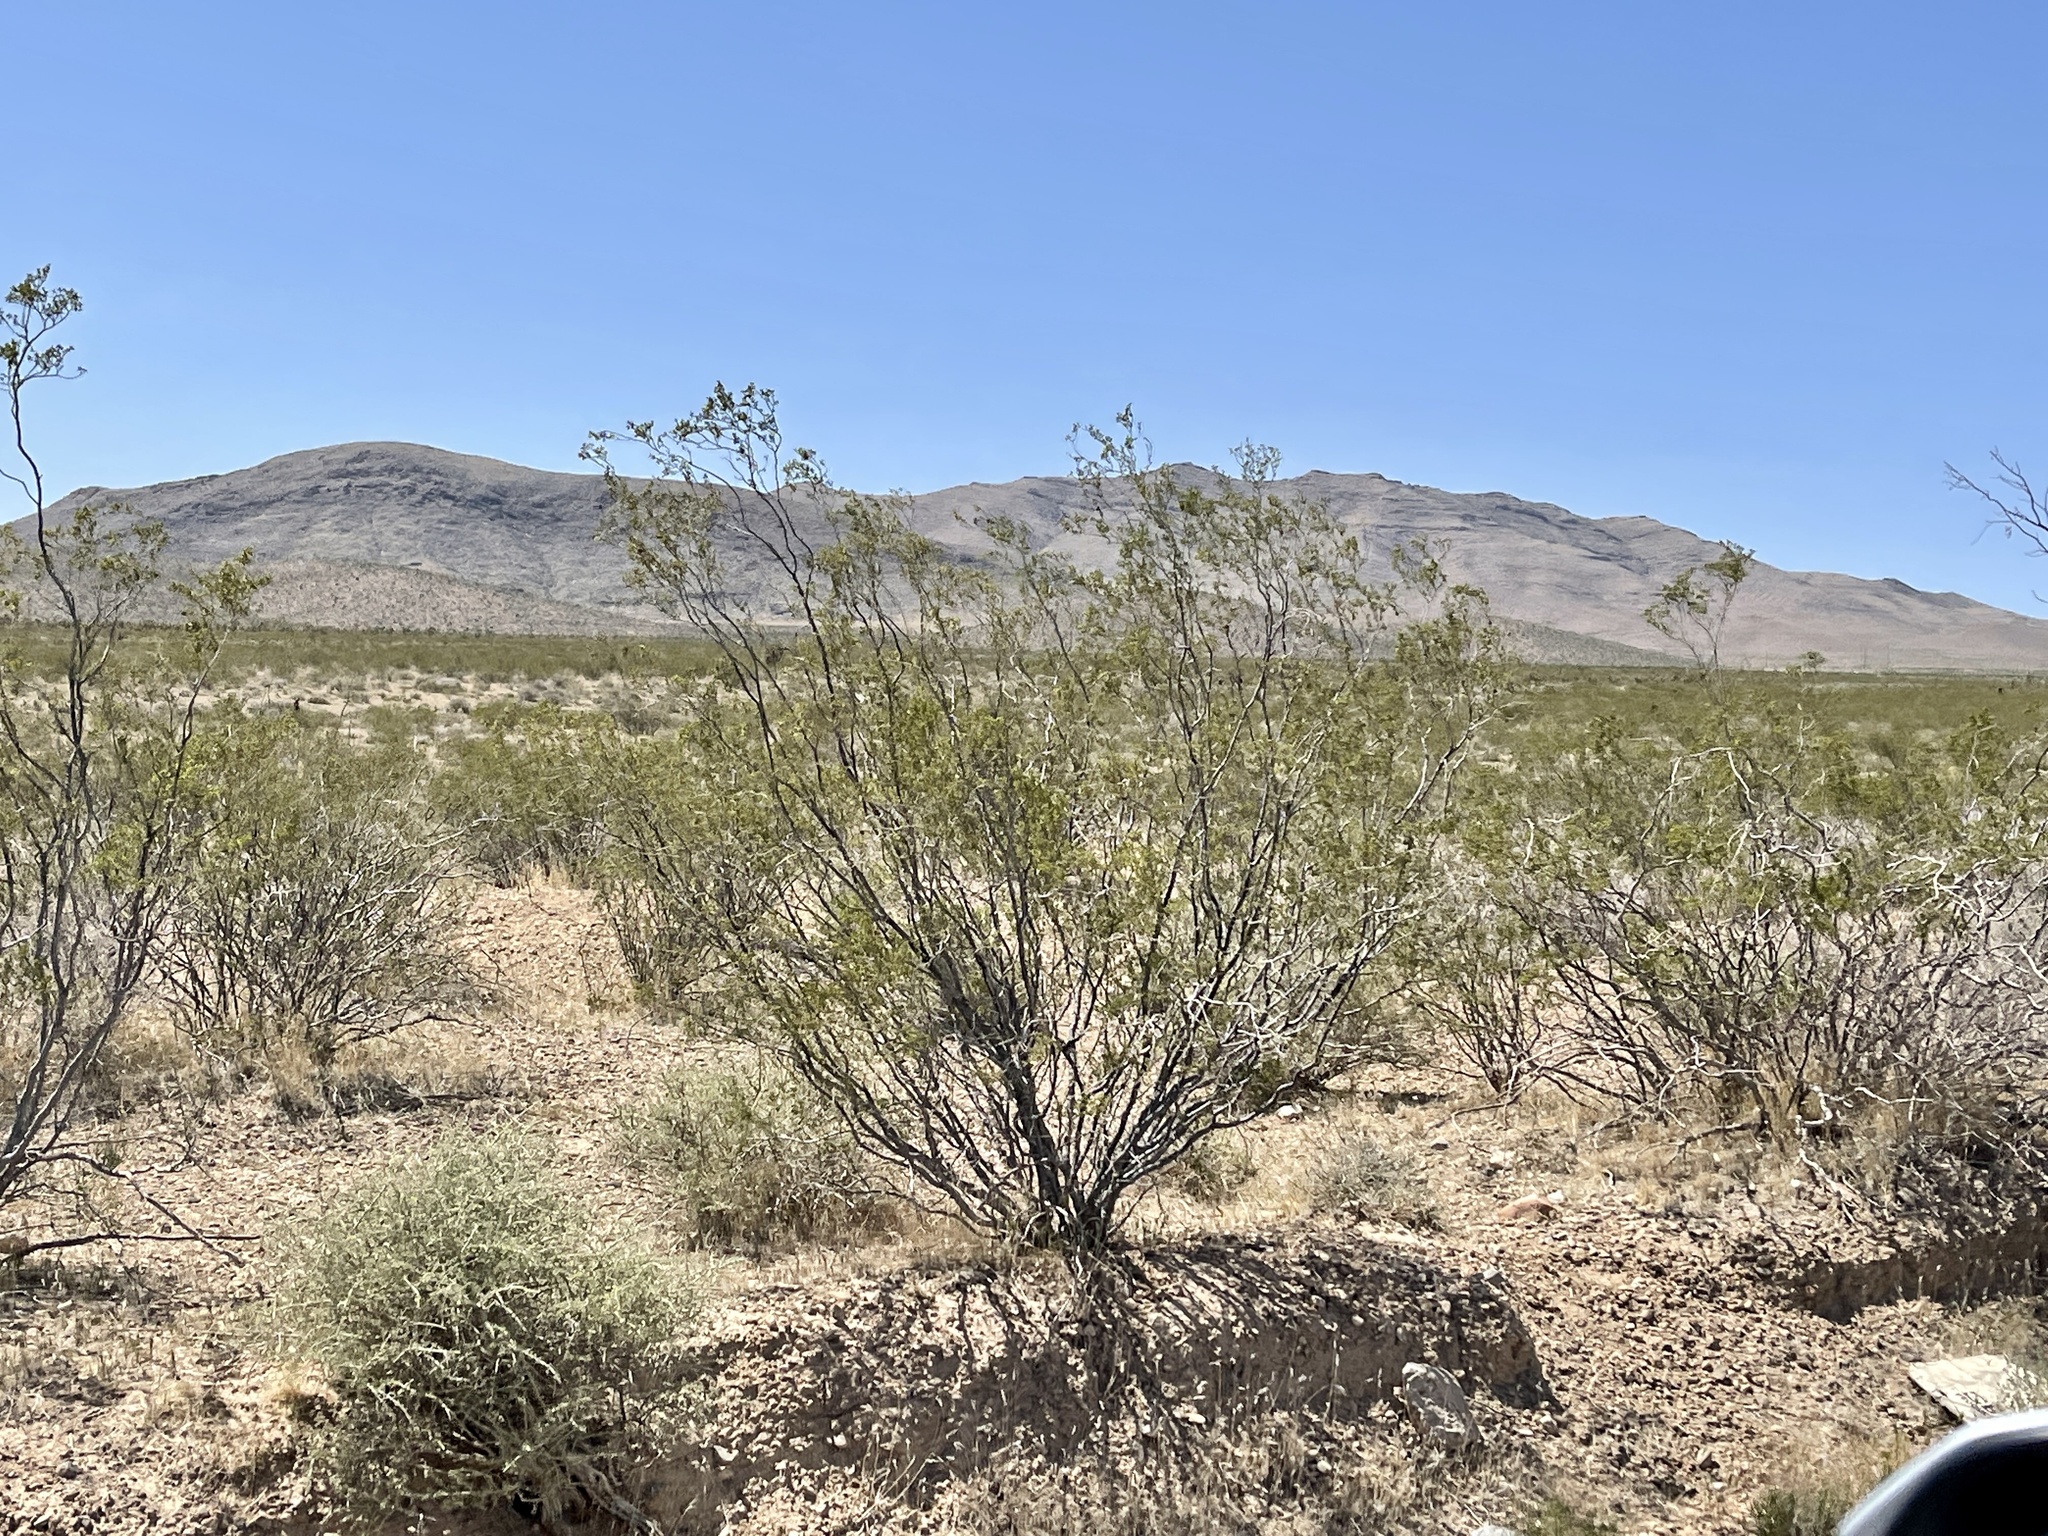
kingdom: Plantae
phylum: Tracheophyta
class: Magnoliopsida
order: Zygophyllales
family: Zygophyllaceae
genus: Larrea
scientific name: Larrea tridentata
